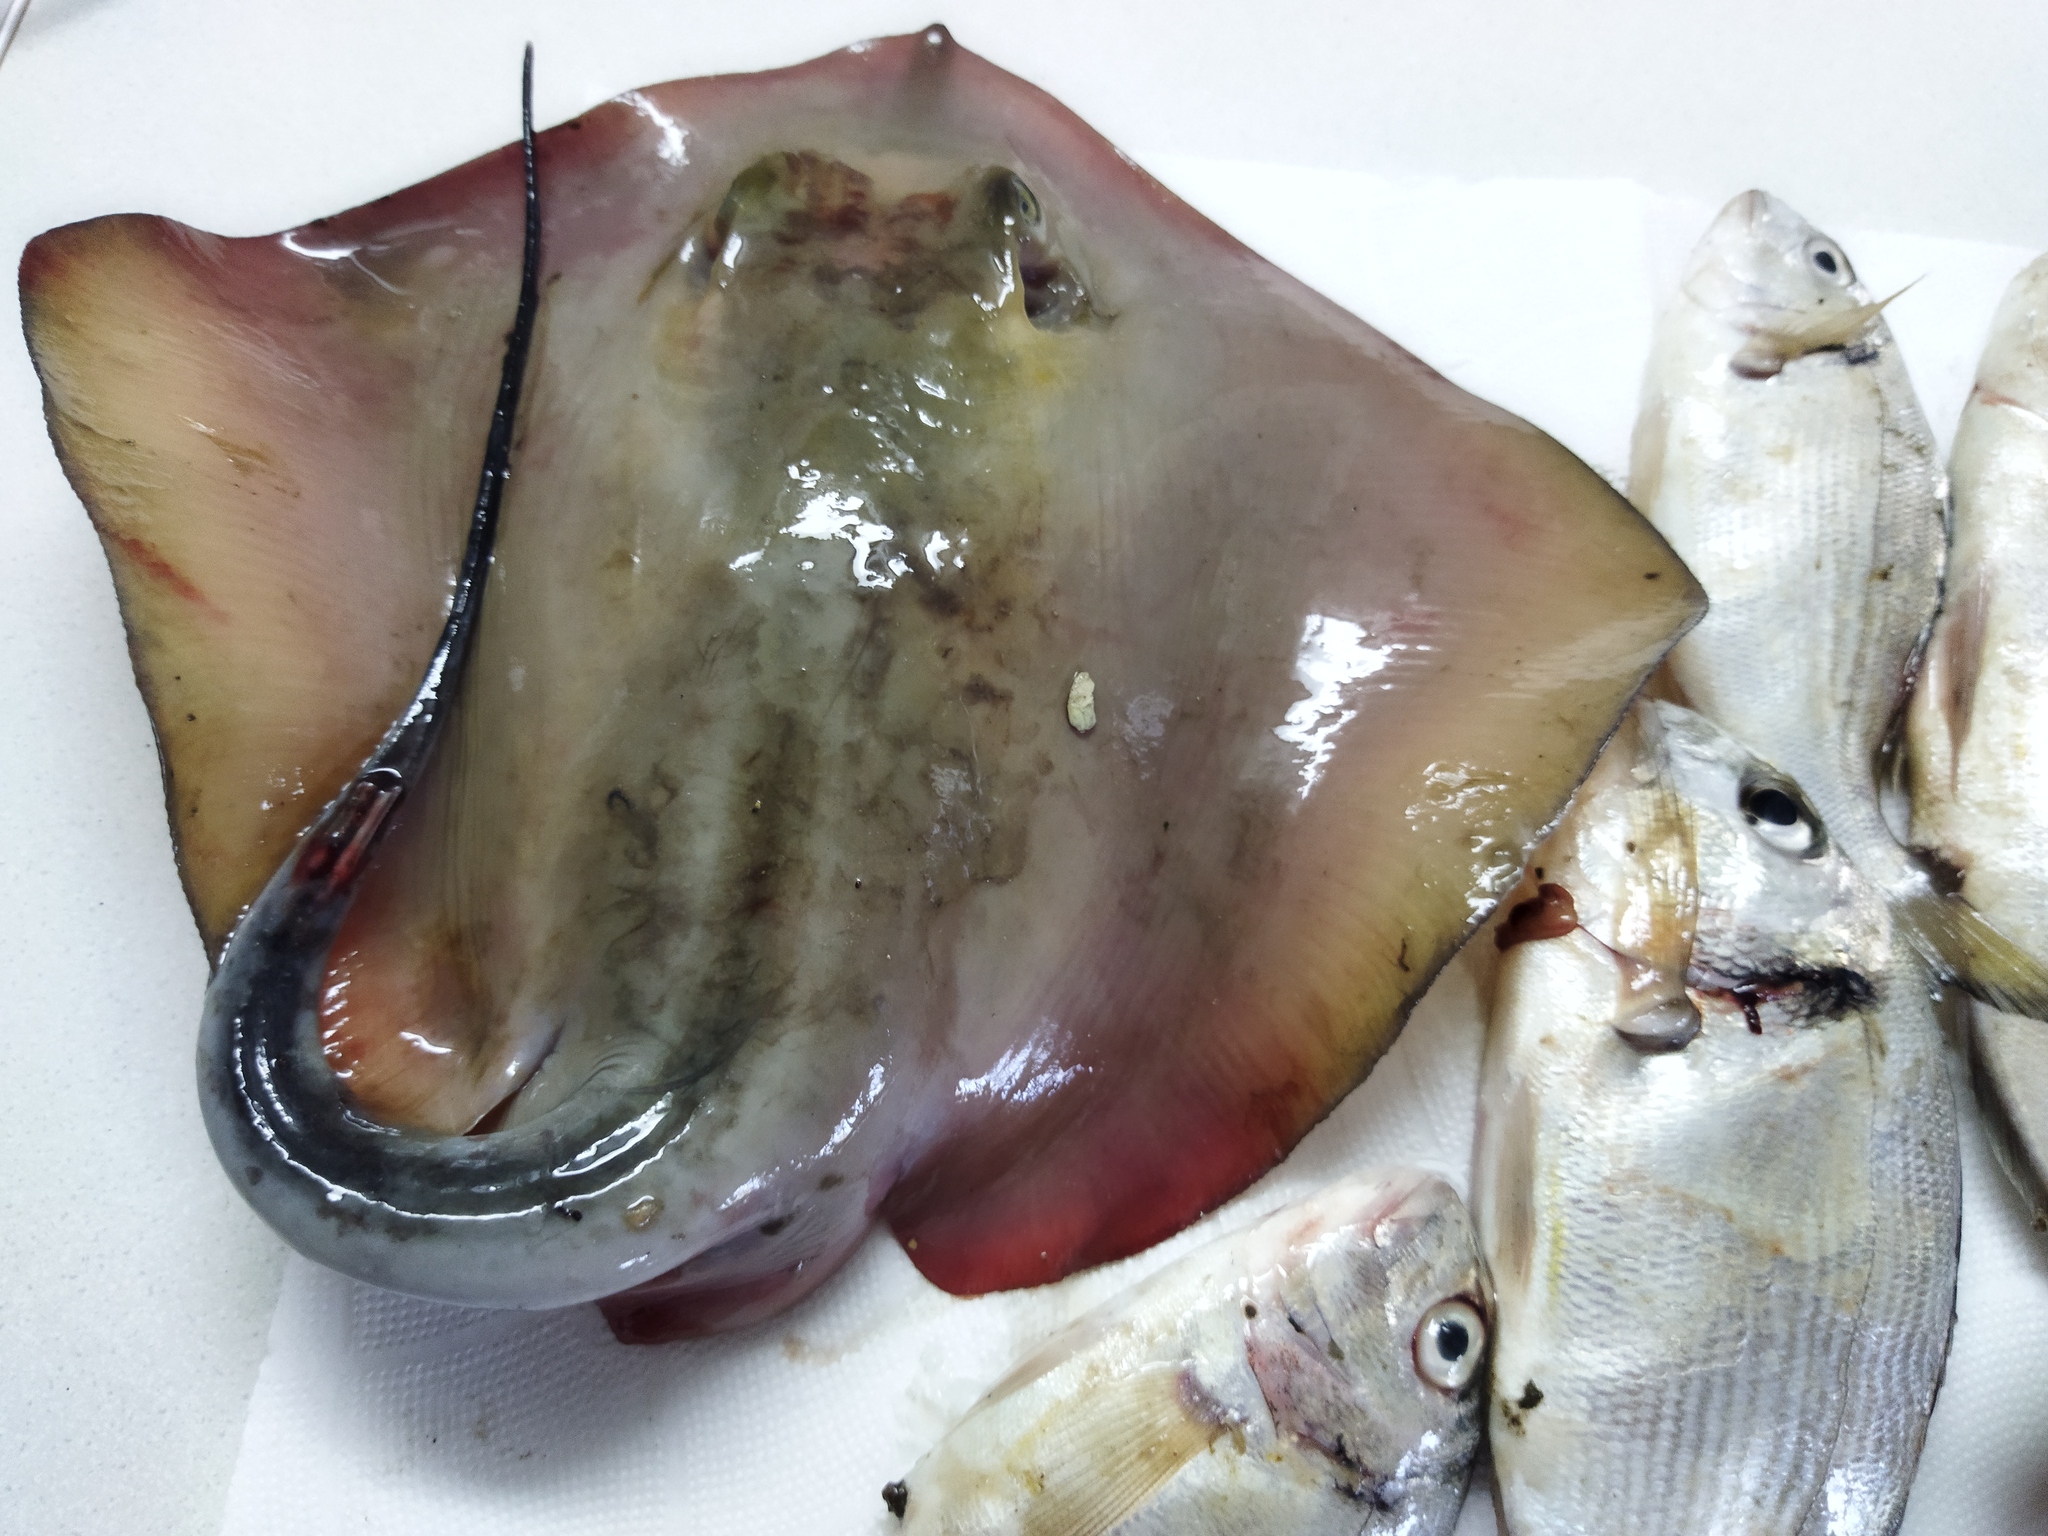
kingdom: Animalia
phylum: Chordata
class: Elasmobranchii
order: Myliobatiformes
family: Dasyatidae
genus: Dasyatis
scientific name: Dasyatis pastinaca
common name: Common stingray
